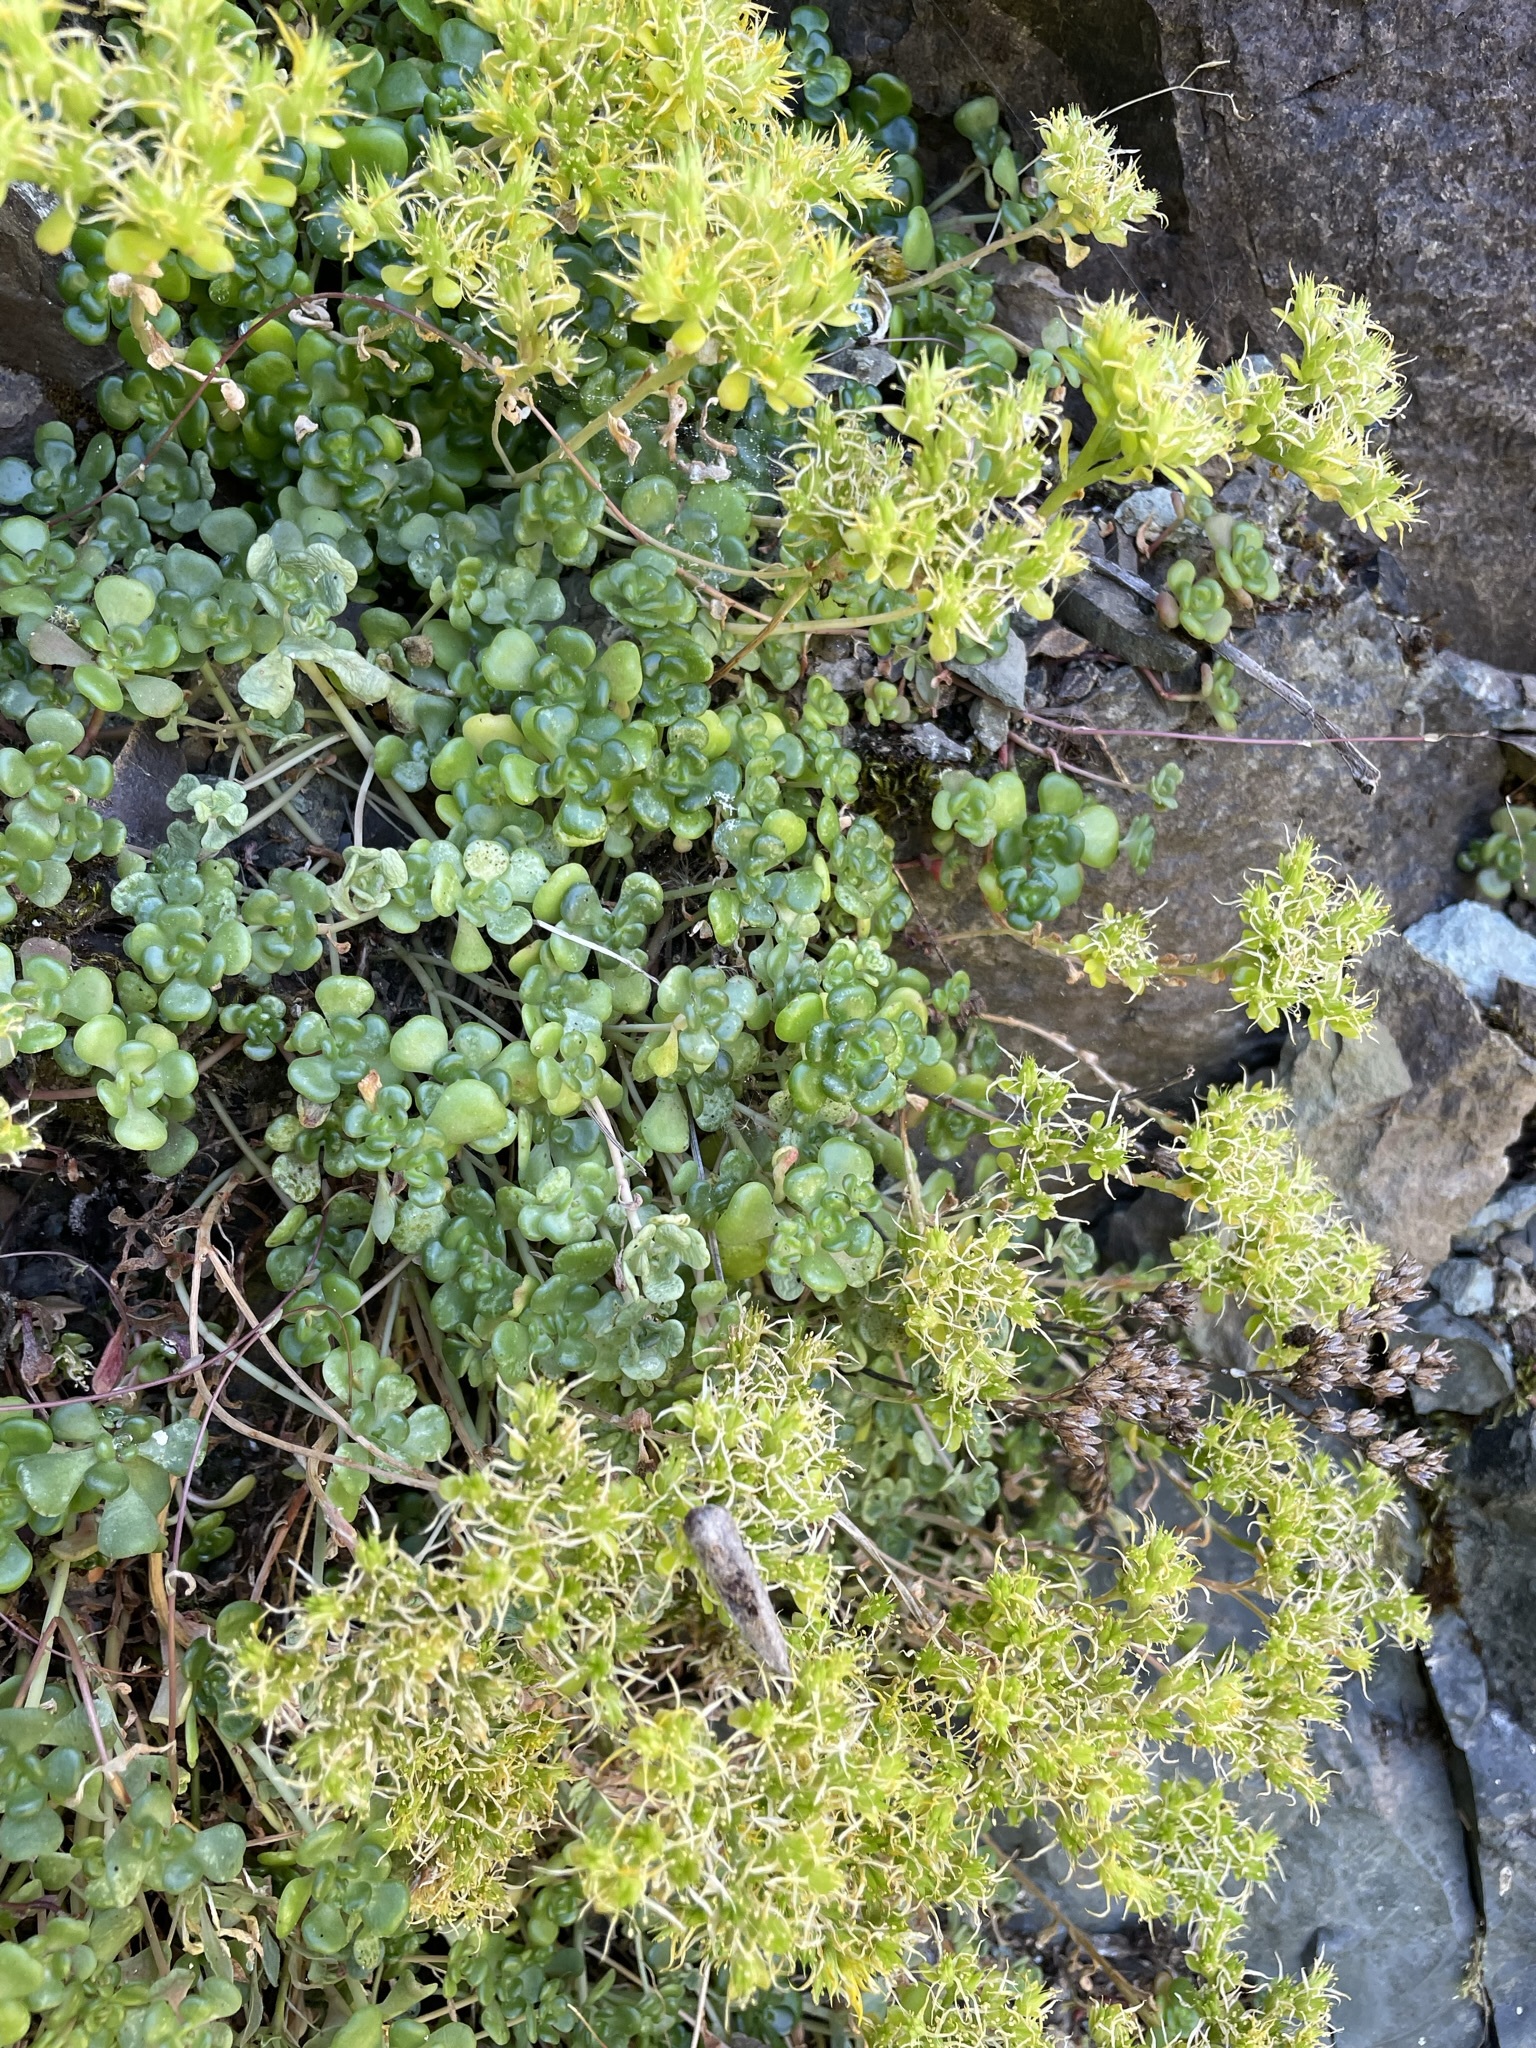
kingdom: Plantae
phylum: Tracheophyta
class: Magnoliopsida
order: Saxifragales
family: Crassulaceae
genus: Sedum
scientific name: Sedum oreganum
